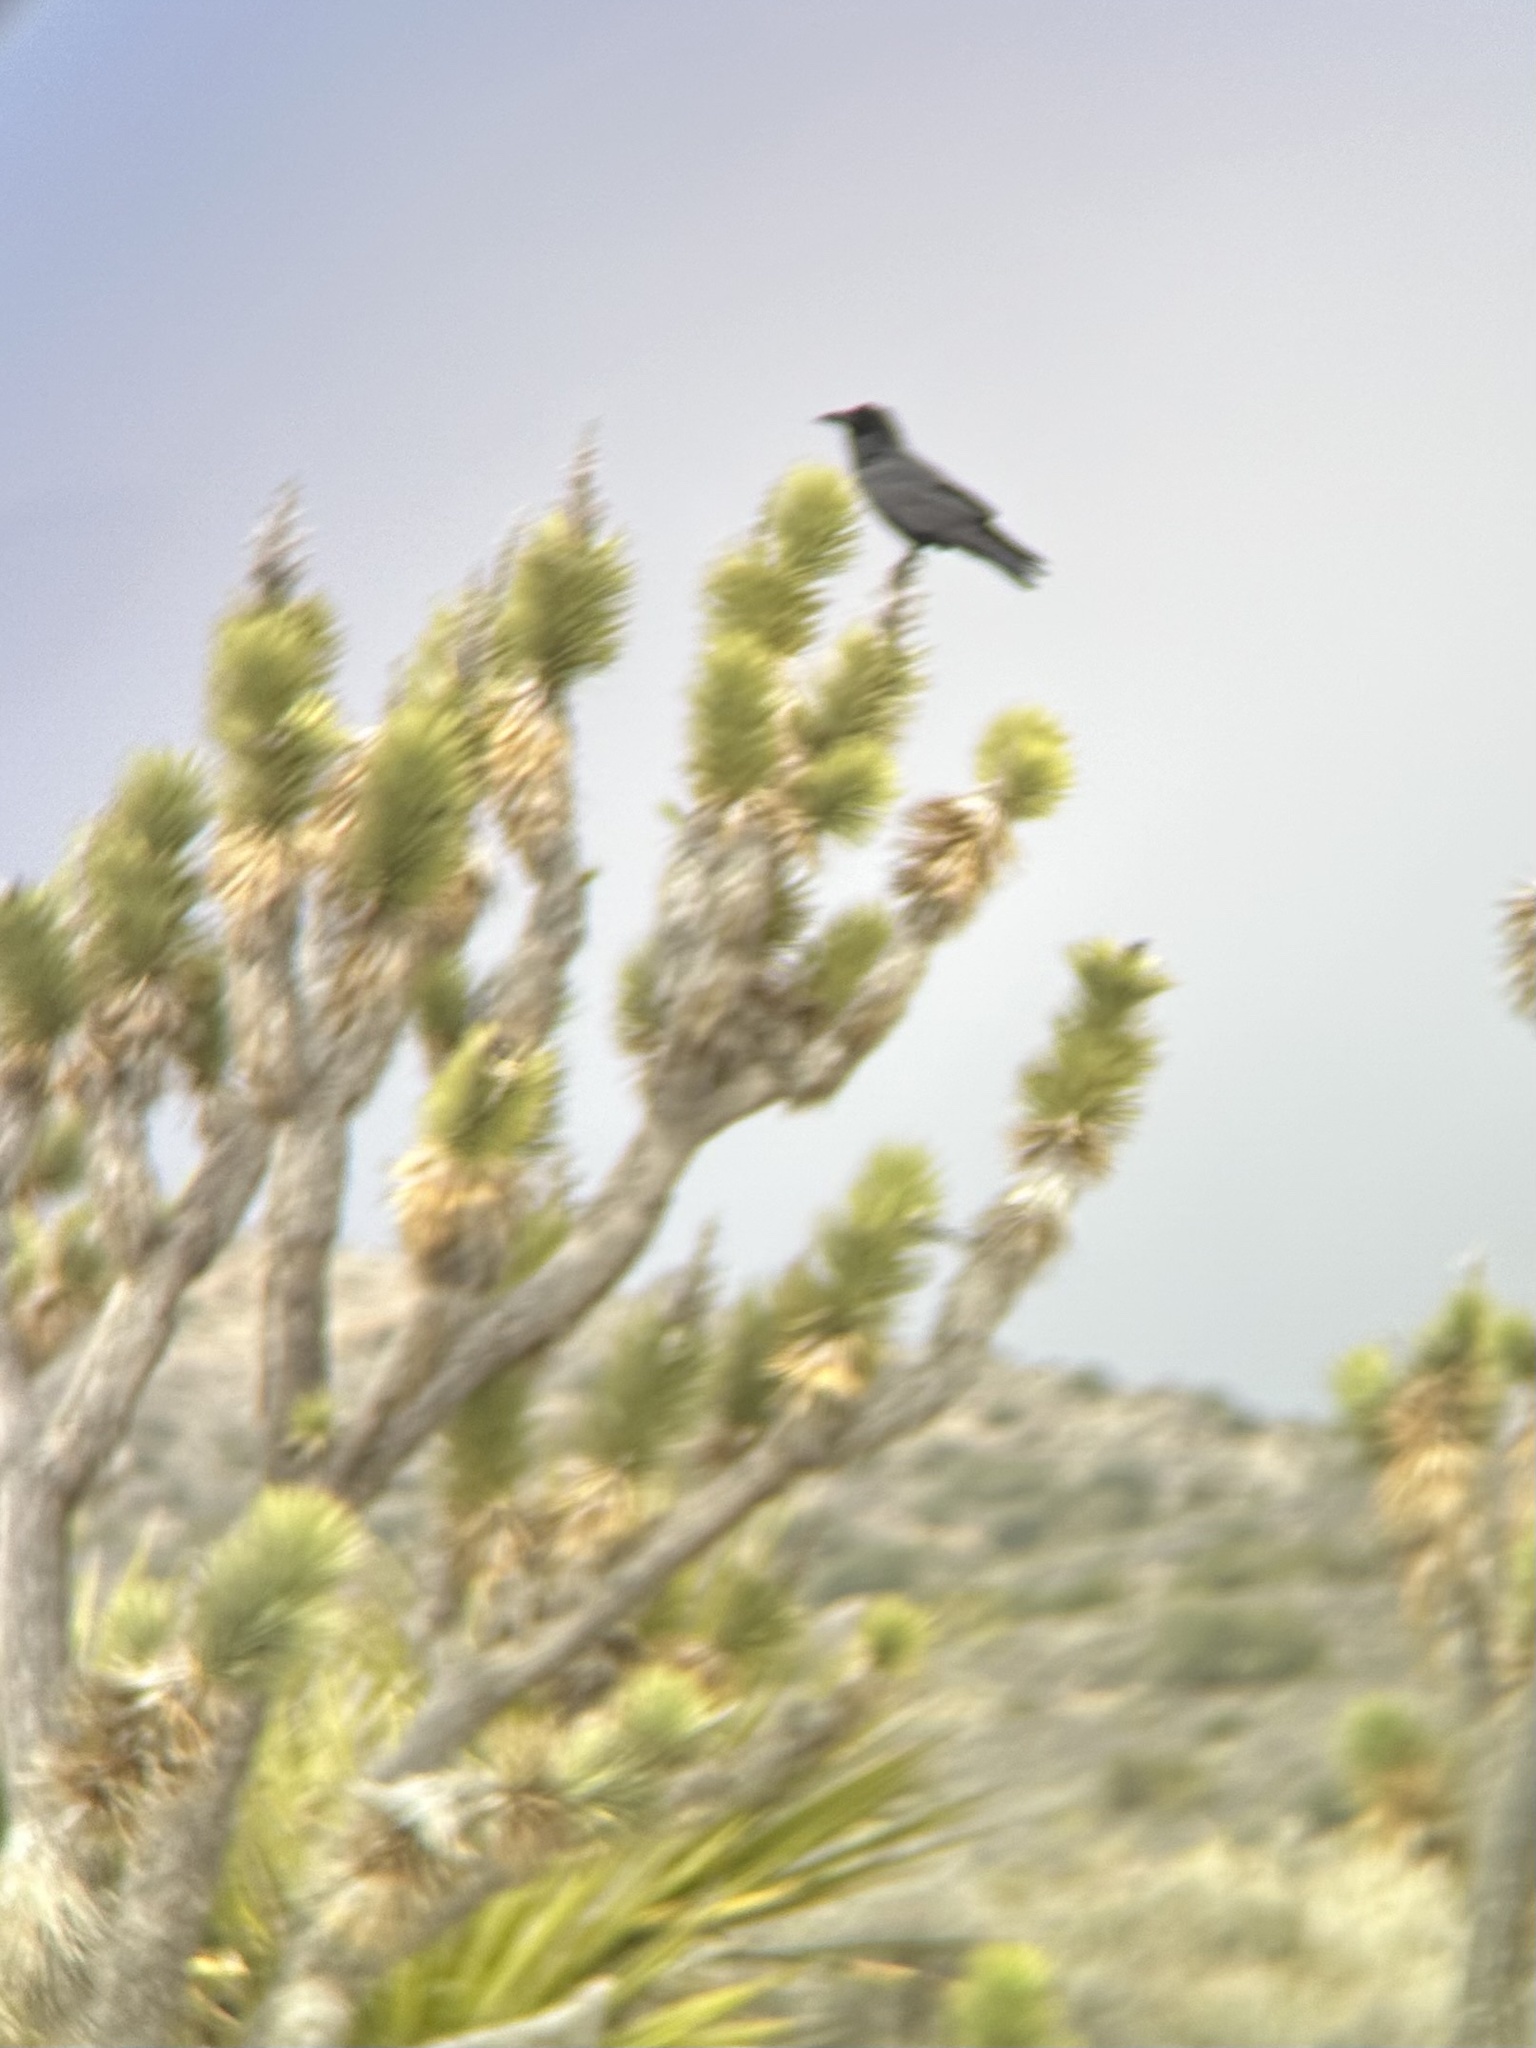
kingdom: Plantae
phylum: Tracheophyta
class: Liliopsida
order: Asparagales
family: Asparagaceae
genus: Yucca
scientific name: Yucca brevifolia
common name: Joshua tree
